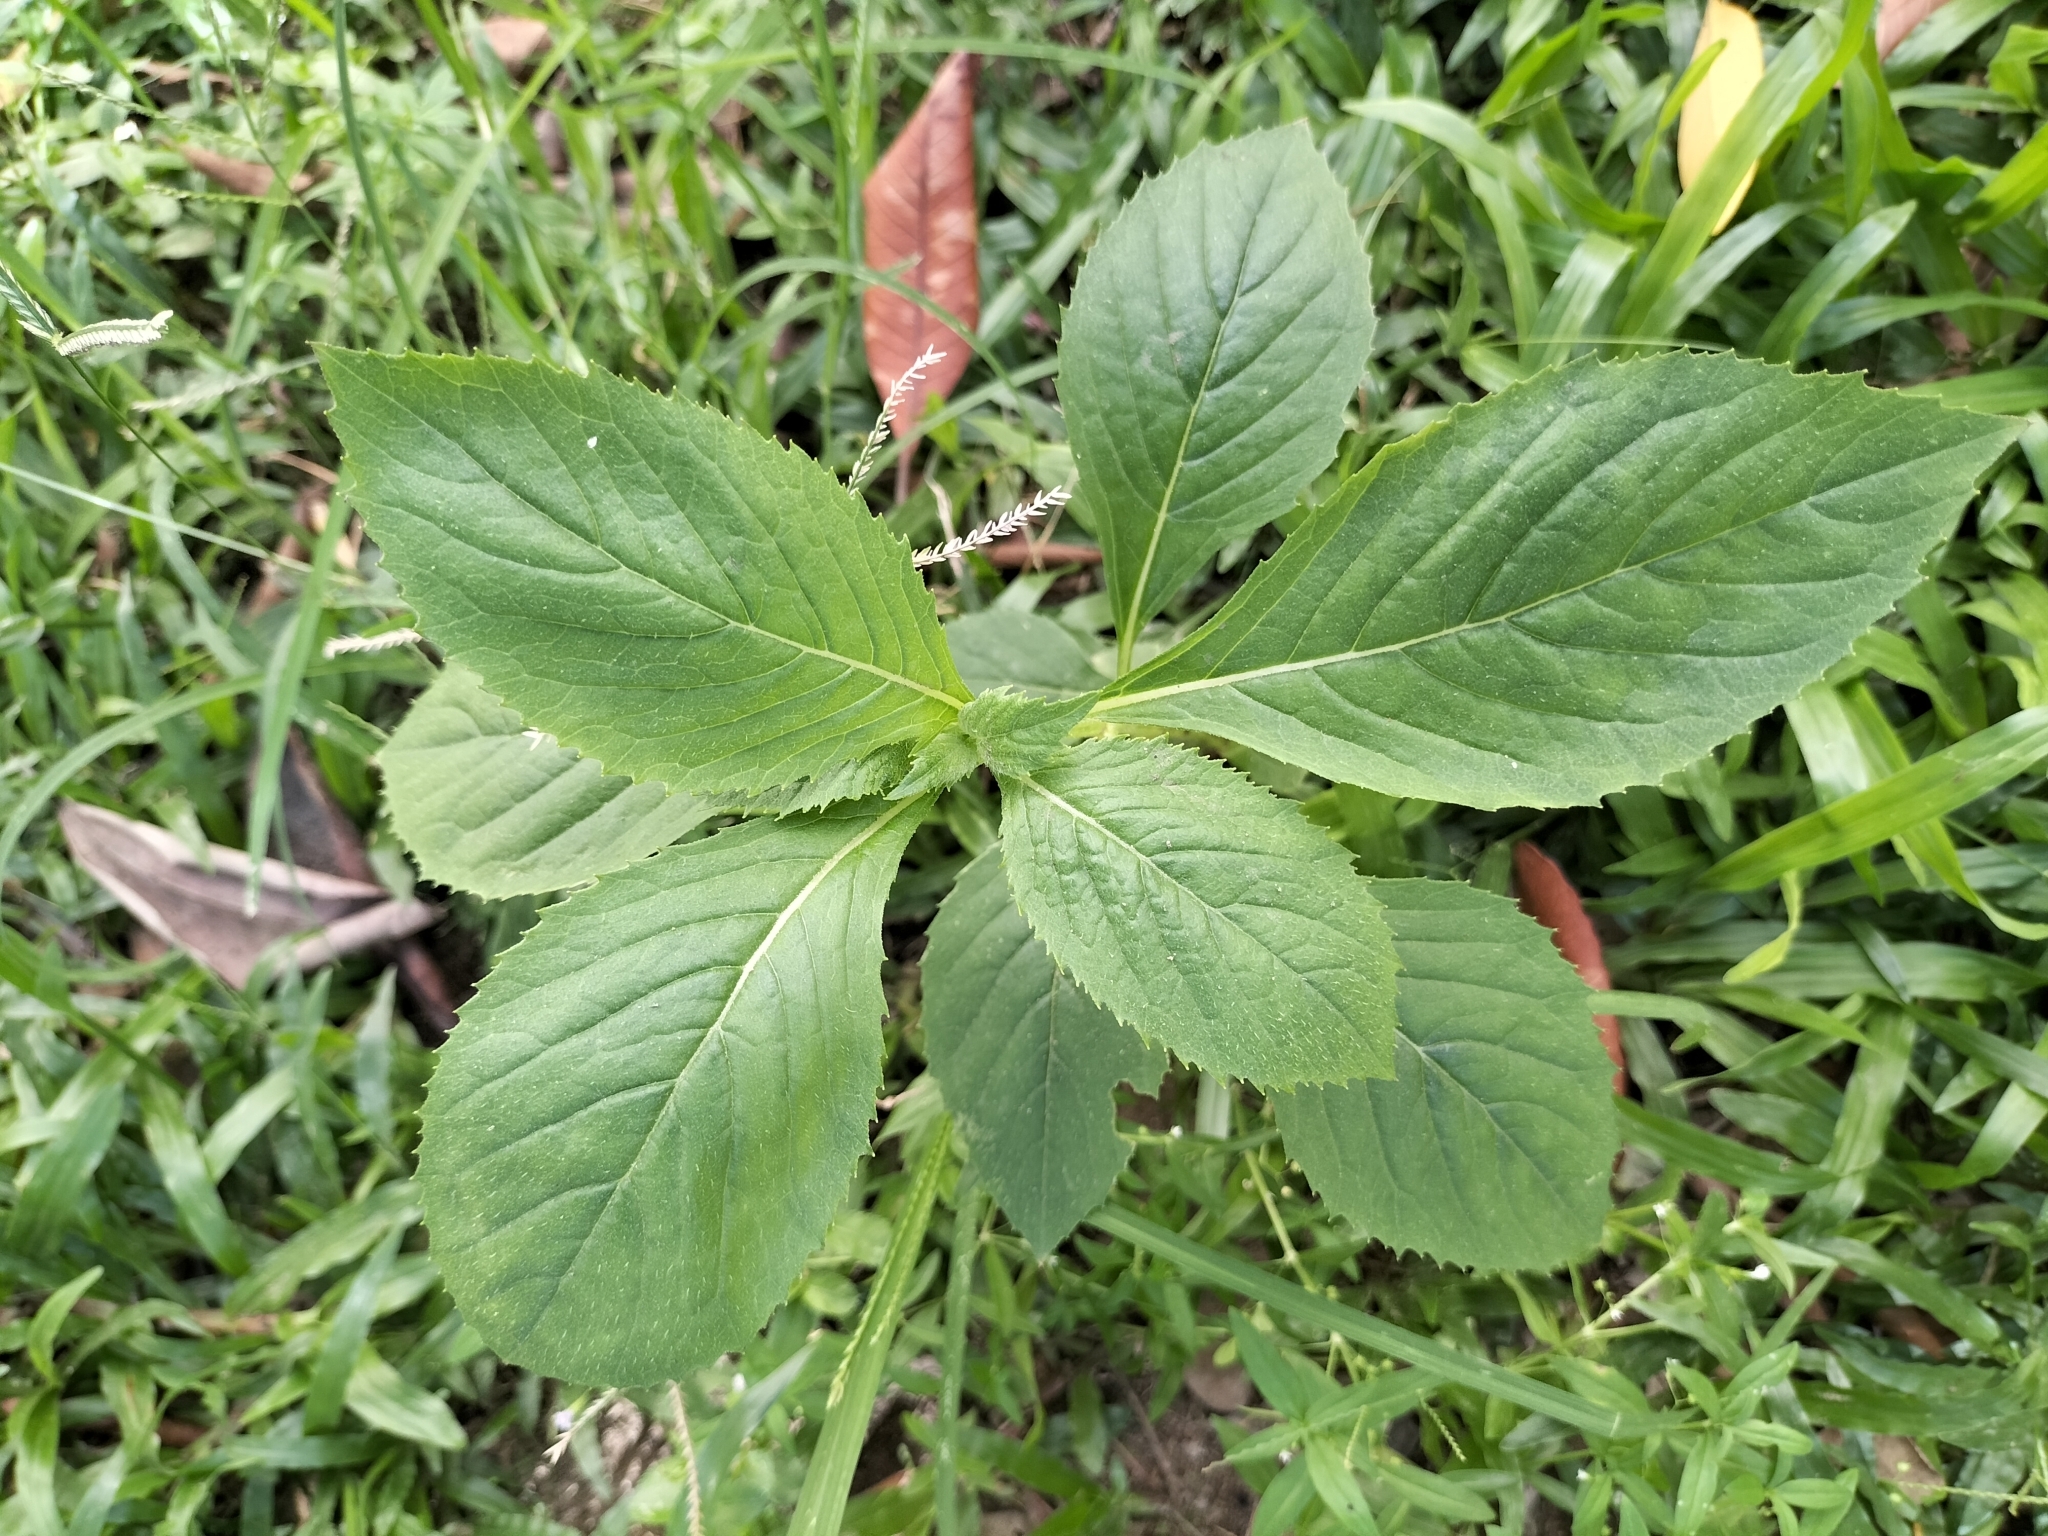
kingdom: Plantae
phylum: Tracheophyta
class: Magnoliopsida
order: Asterales
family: Asteraceae
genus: Crassocephalum
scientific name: Crassocephalum crepidioides
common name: Redflower ragleaf
